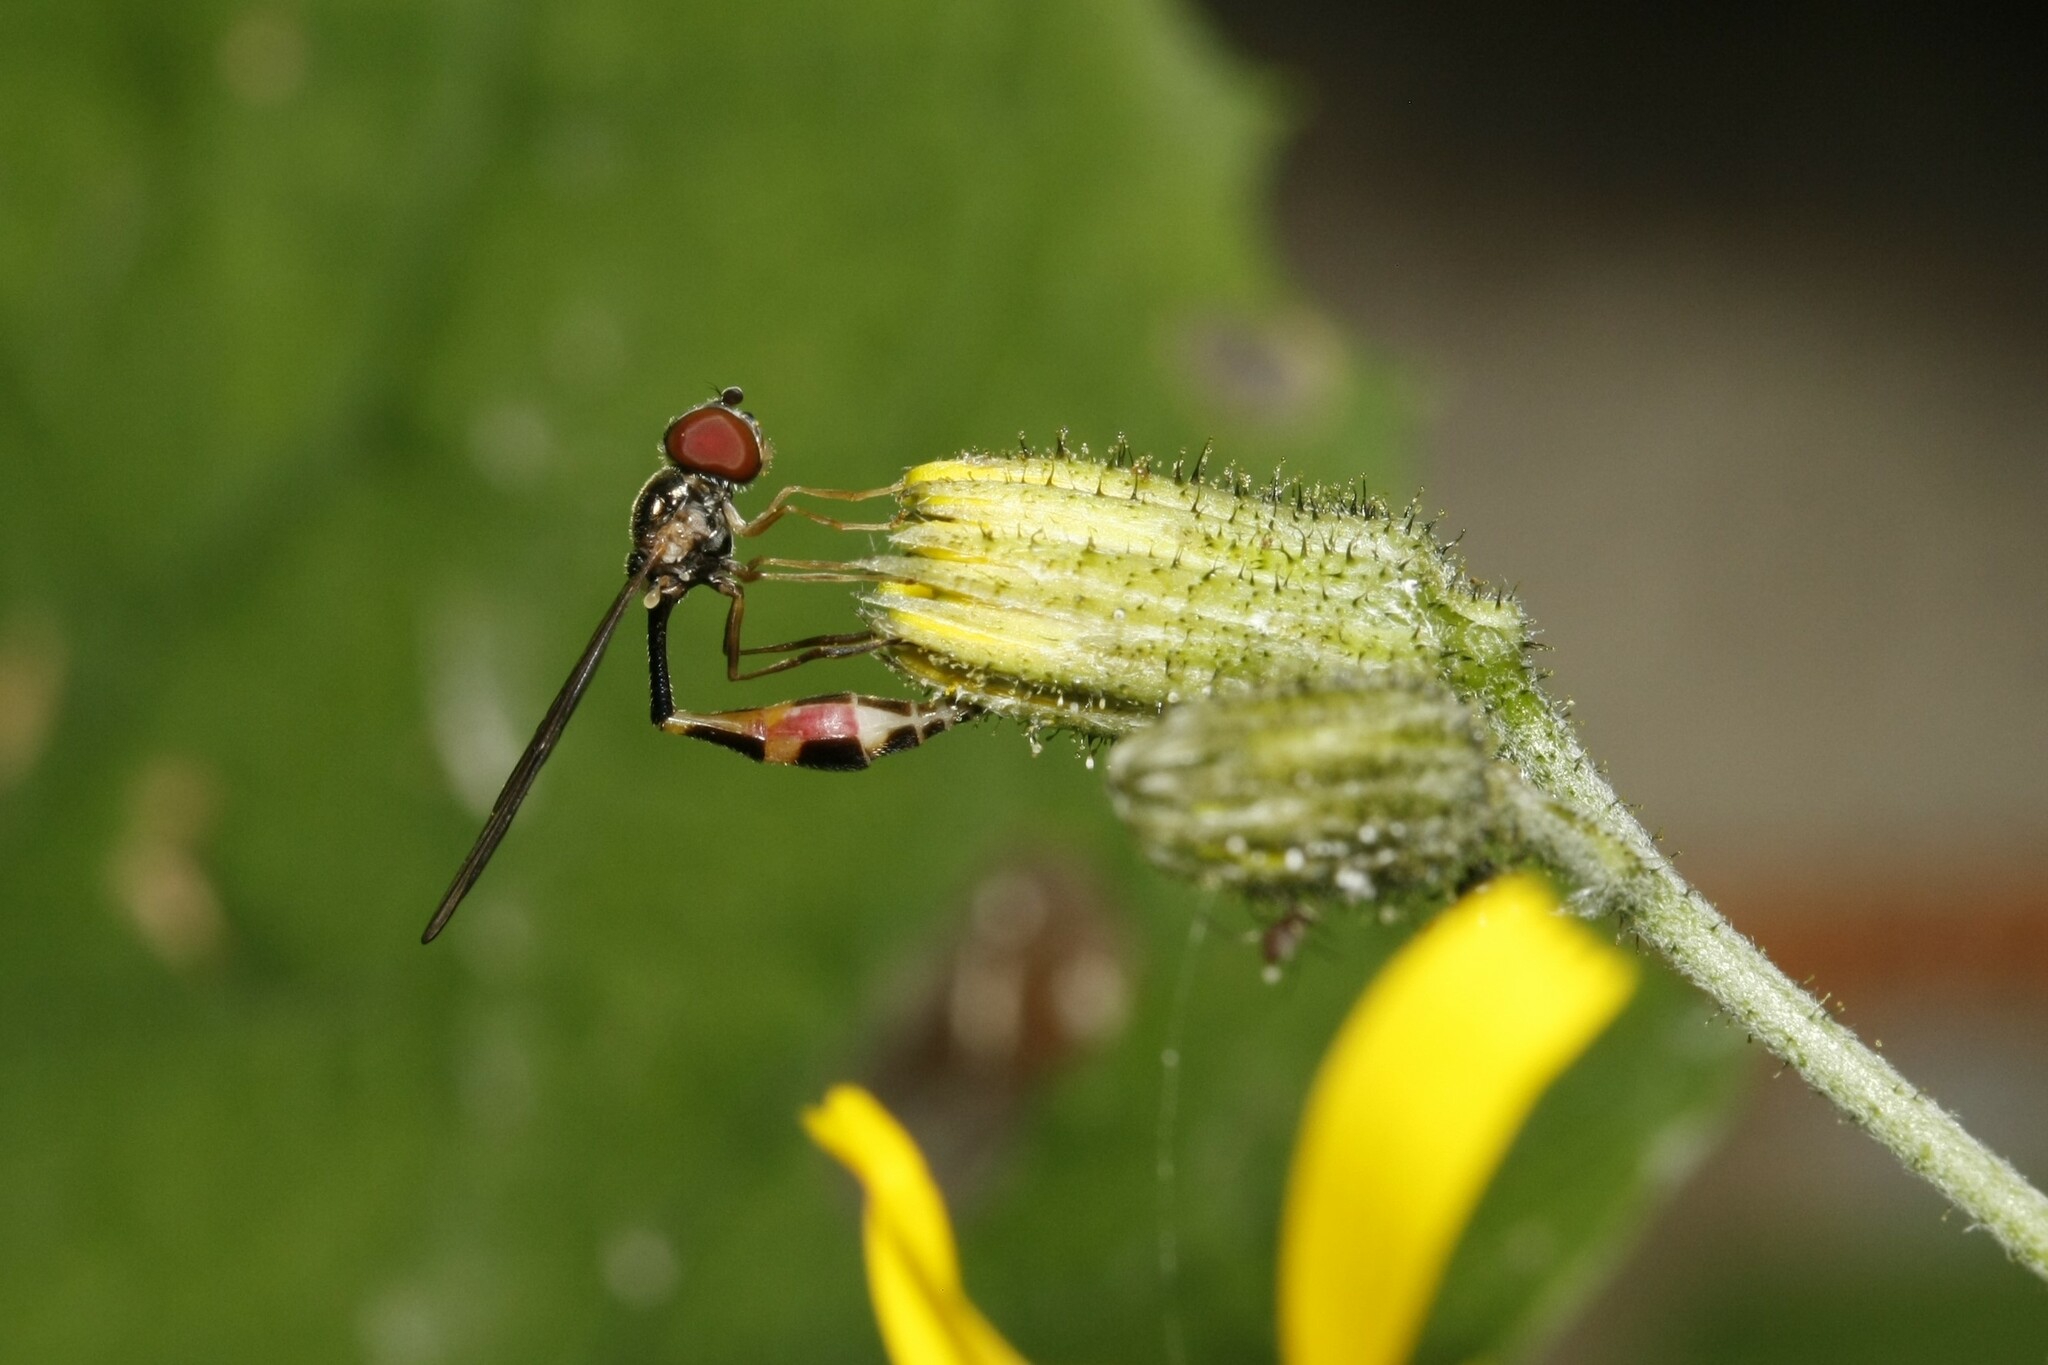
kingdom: Animalia
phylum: Arthropoda
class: Insecta
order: Diptera
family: Syrphidae
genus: Baccha
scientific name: Baccha elongata
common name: Common dainty
